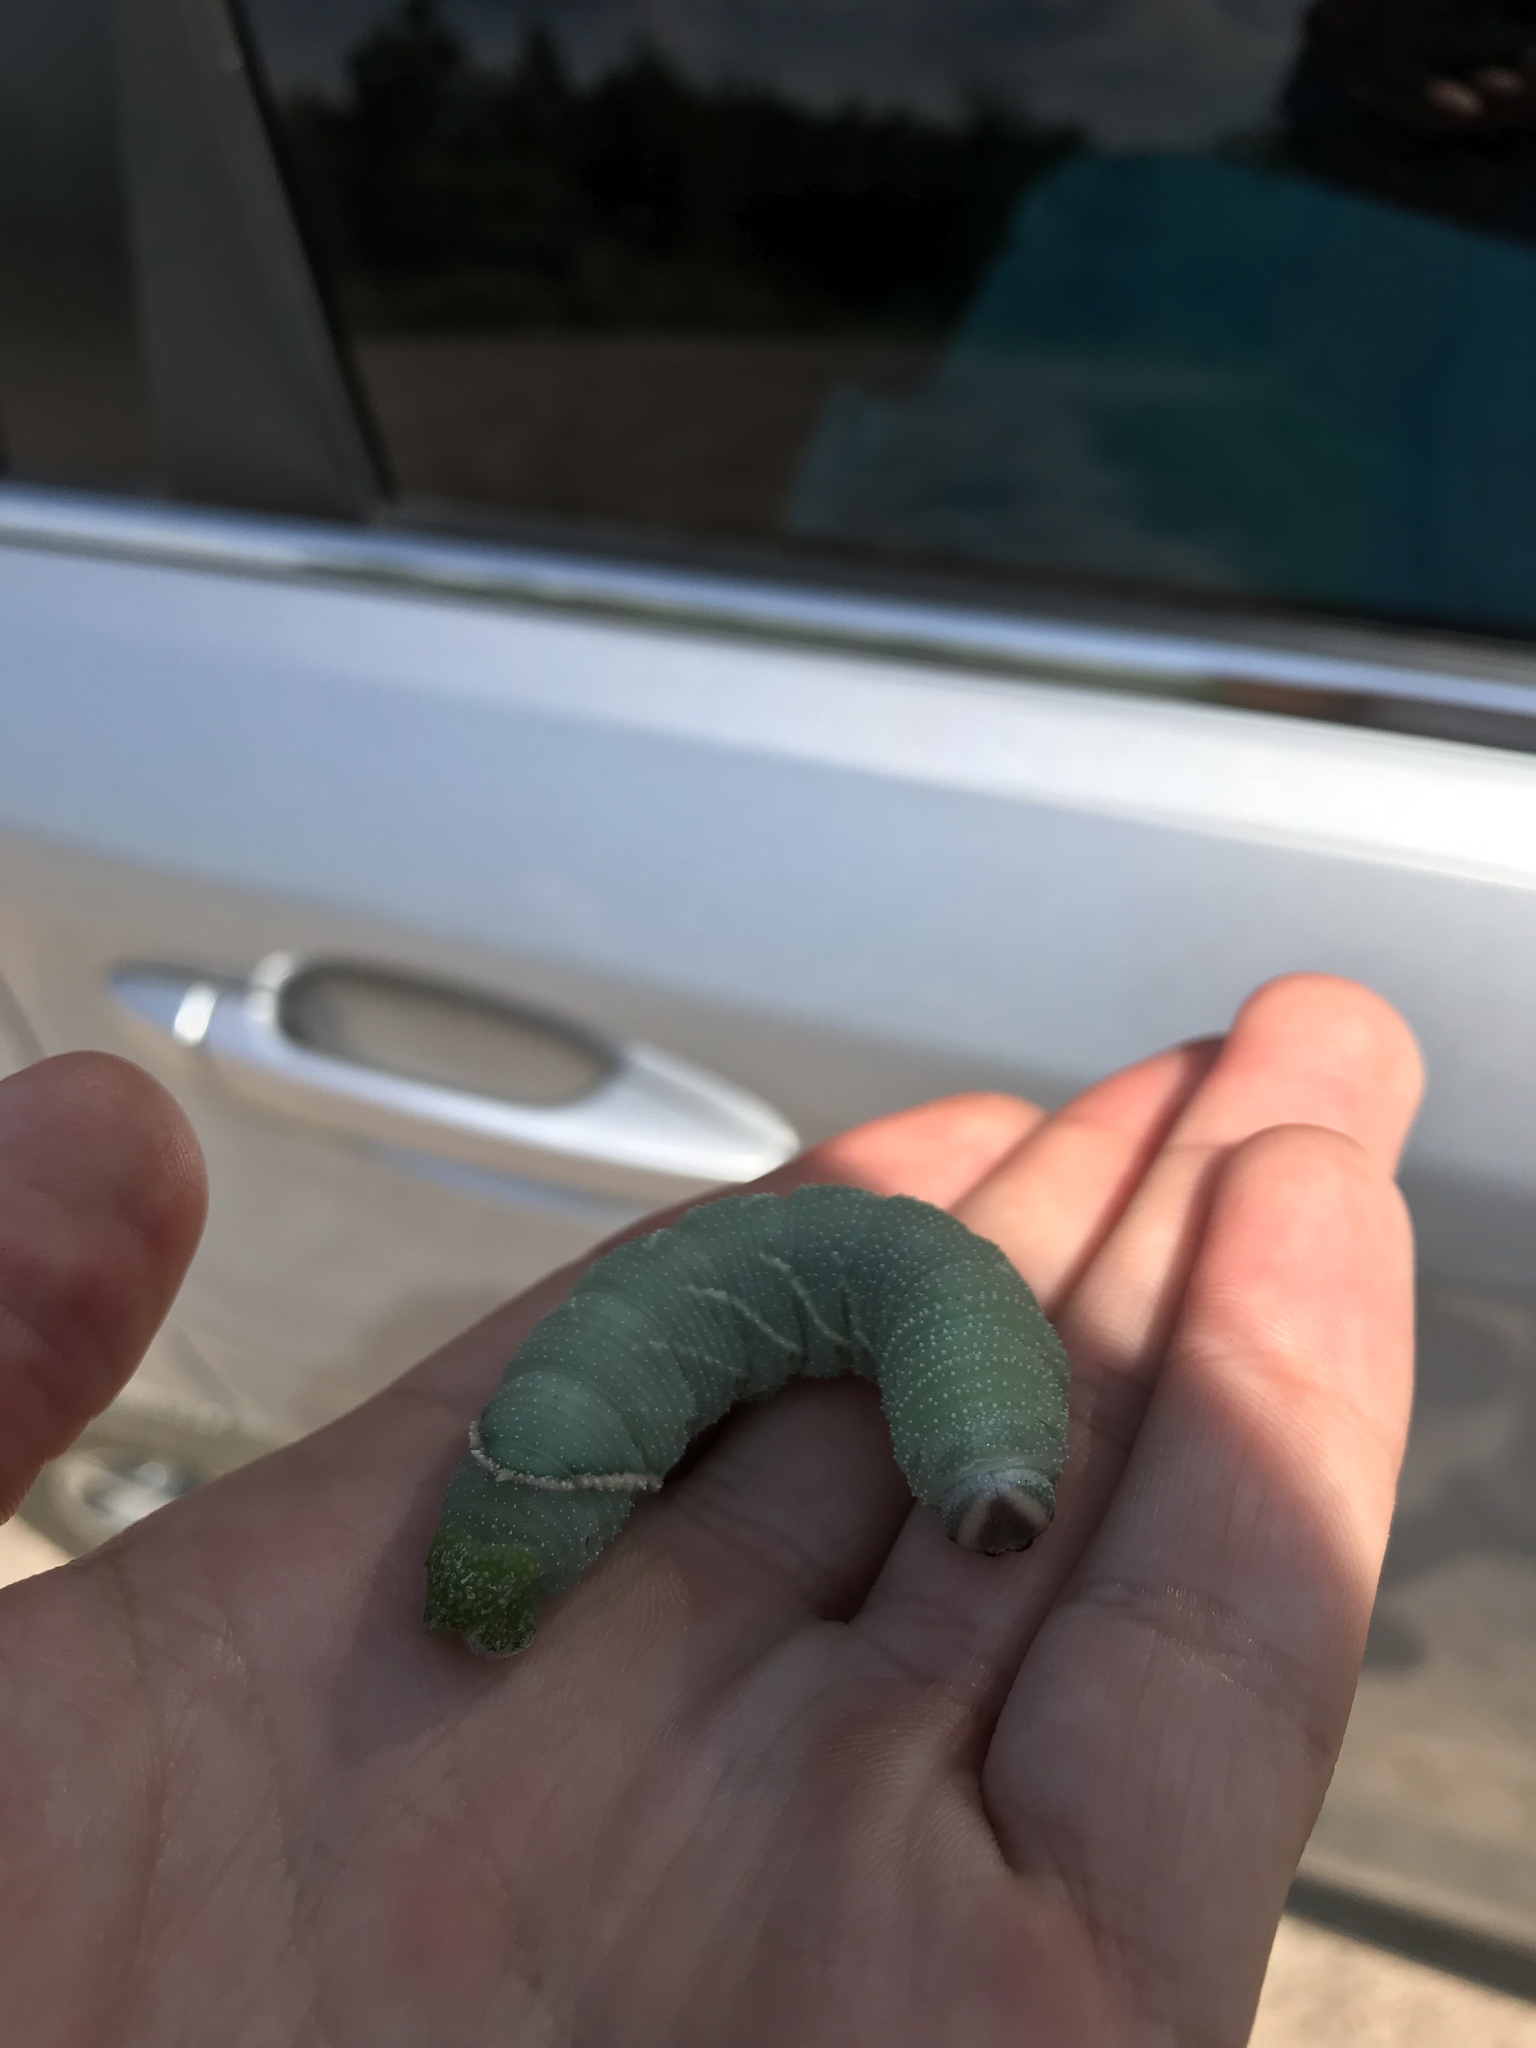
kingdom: Animalia
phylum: Arthropoda
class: Insecta
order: Lepidoptera
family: Sphingidae
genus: Pachysphinx
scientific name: Pachysphinx modesta
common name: Big poplar sphinx
